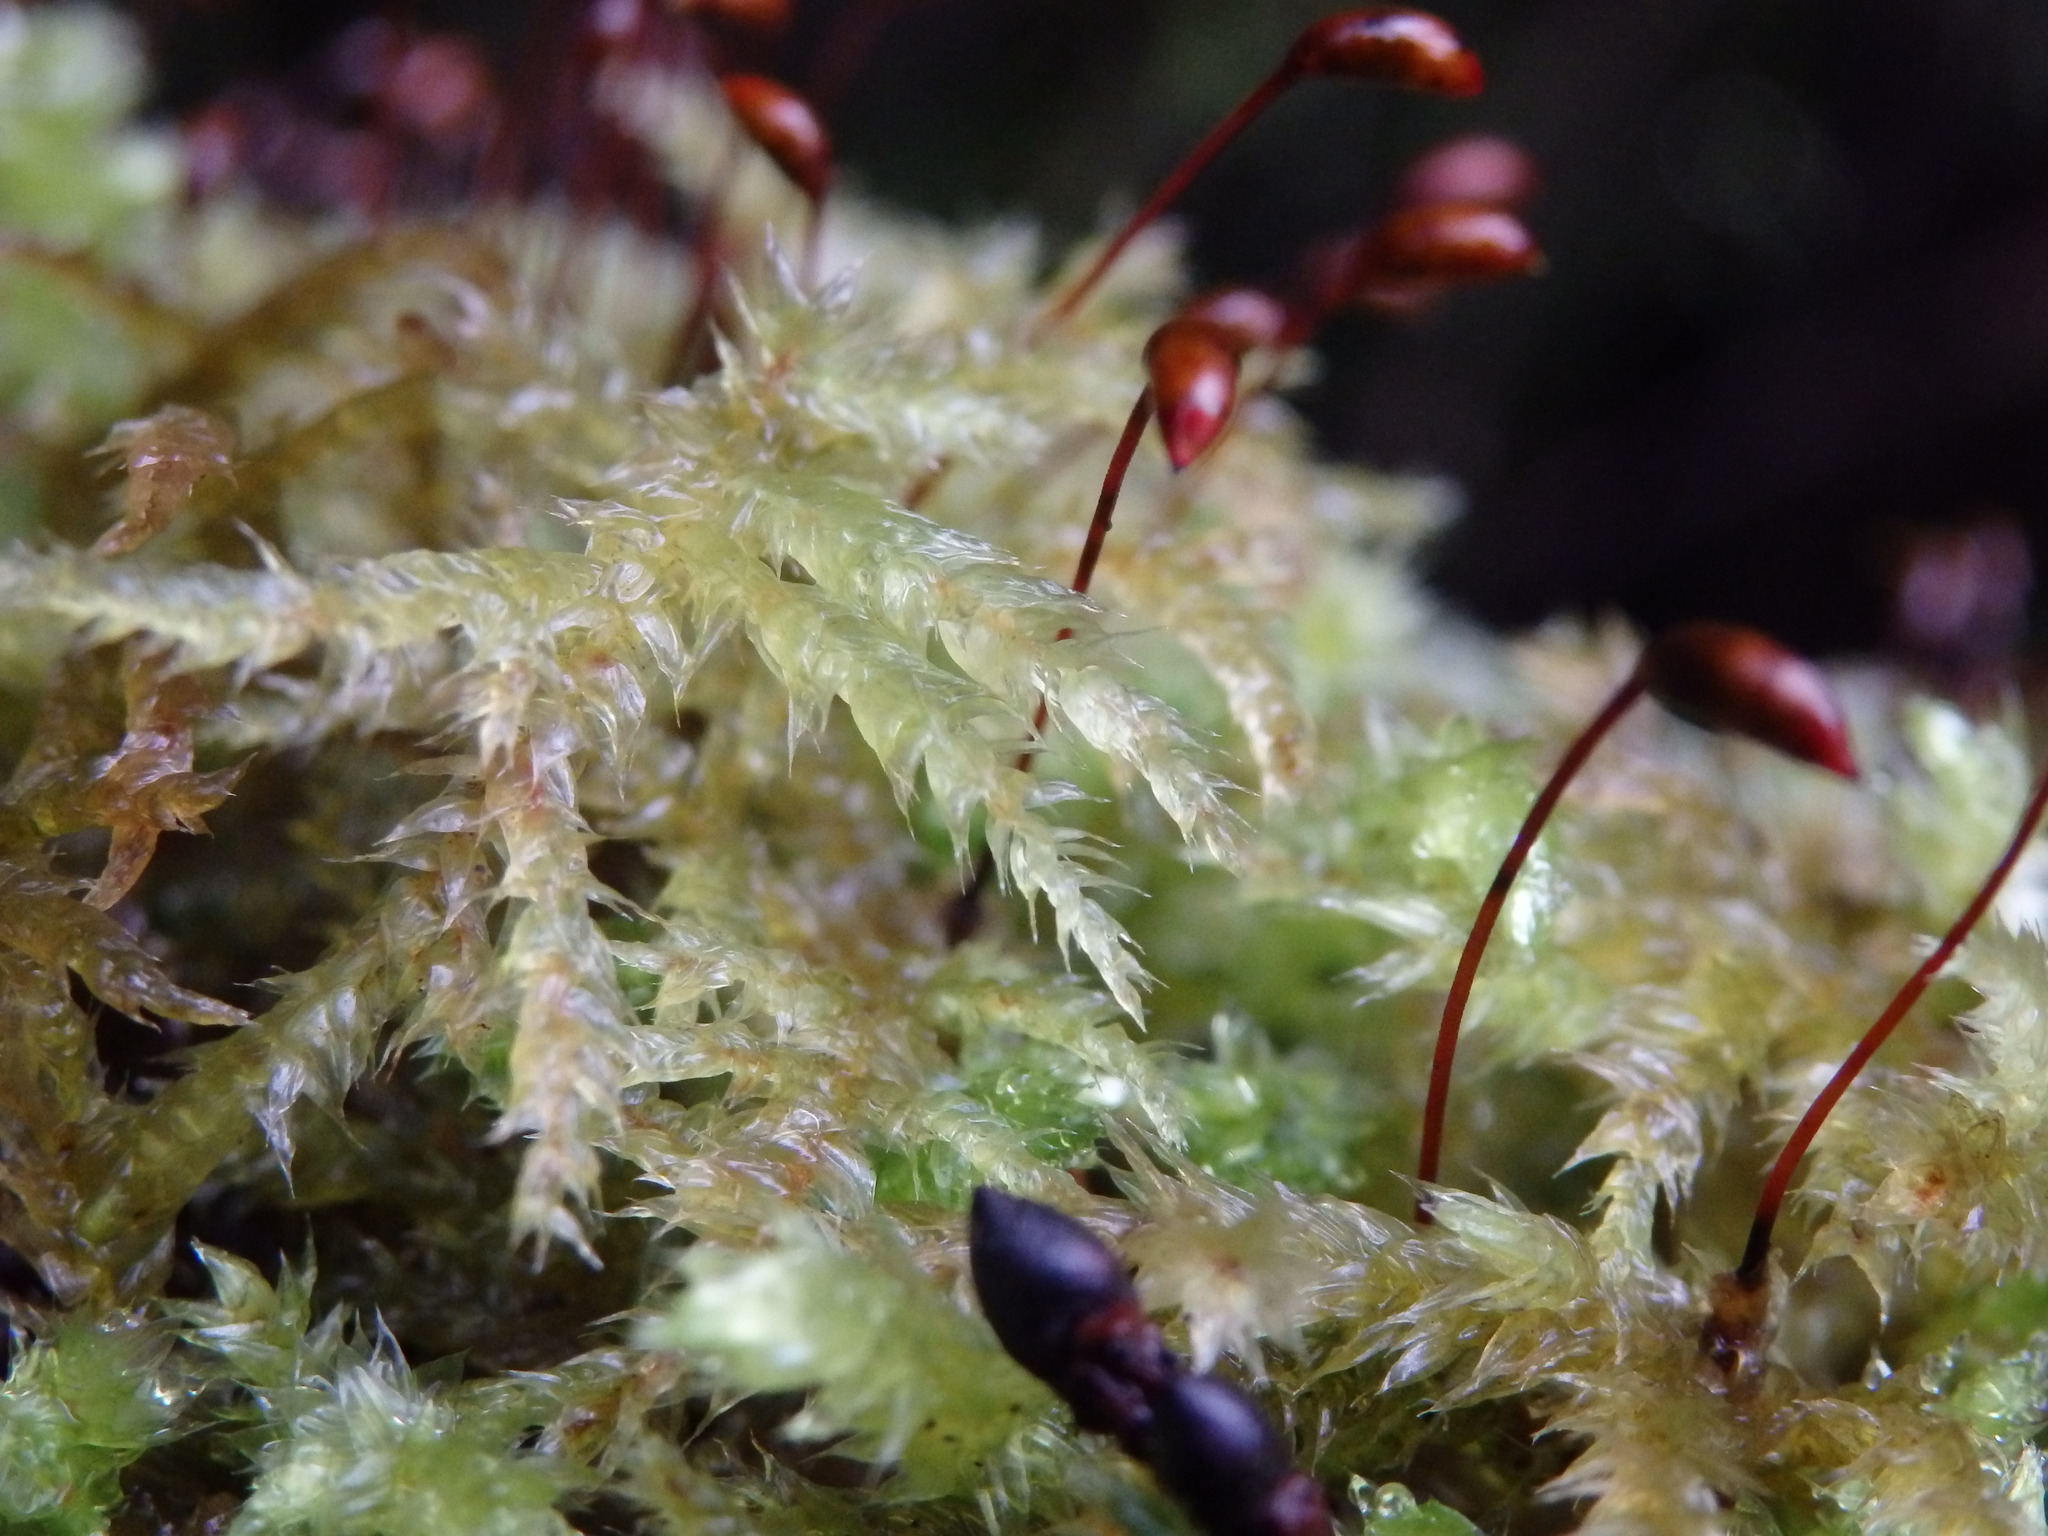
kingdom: Plantae
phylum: Bryophyta
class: Bryopsida
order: Hypnales
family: Brachytheciaceae
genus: Brachythecium
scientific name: Brachythecium rutabulum
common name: Rough-stalked feather-moss
